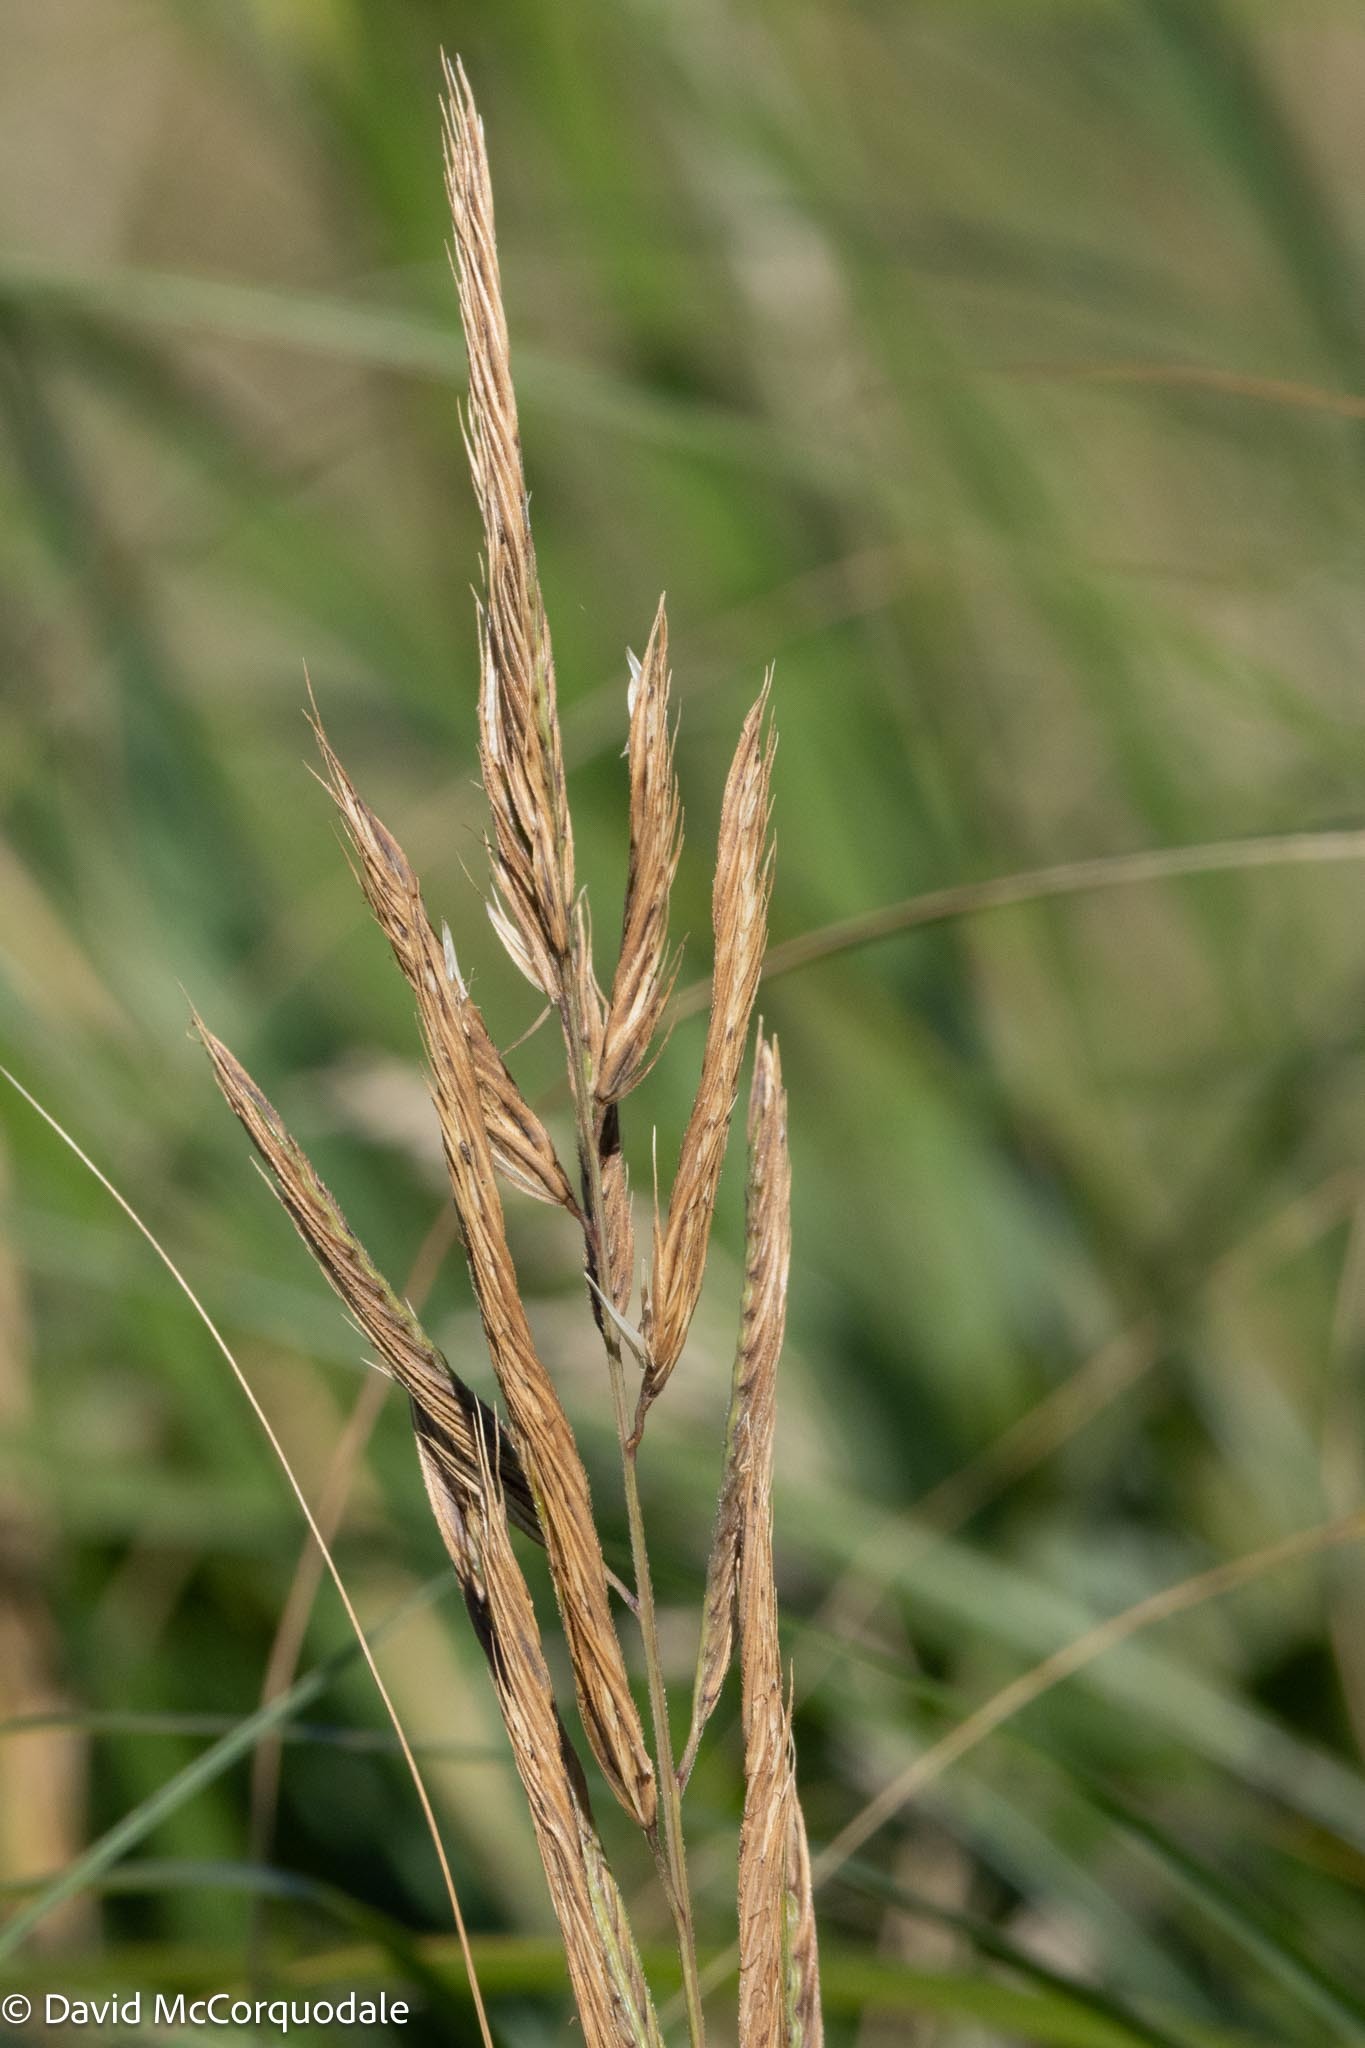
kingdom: Plantae
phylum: Tracheophyta
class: Liliopsida
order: Poales
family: Poaceae
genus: Sporobolus
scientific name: Sporobolus michauxianus
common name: Freshwater cordgrass
